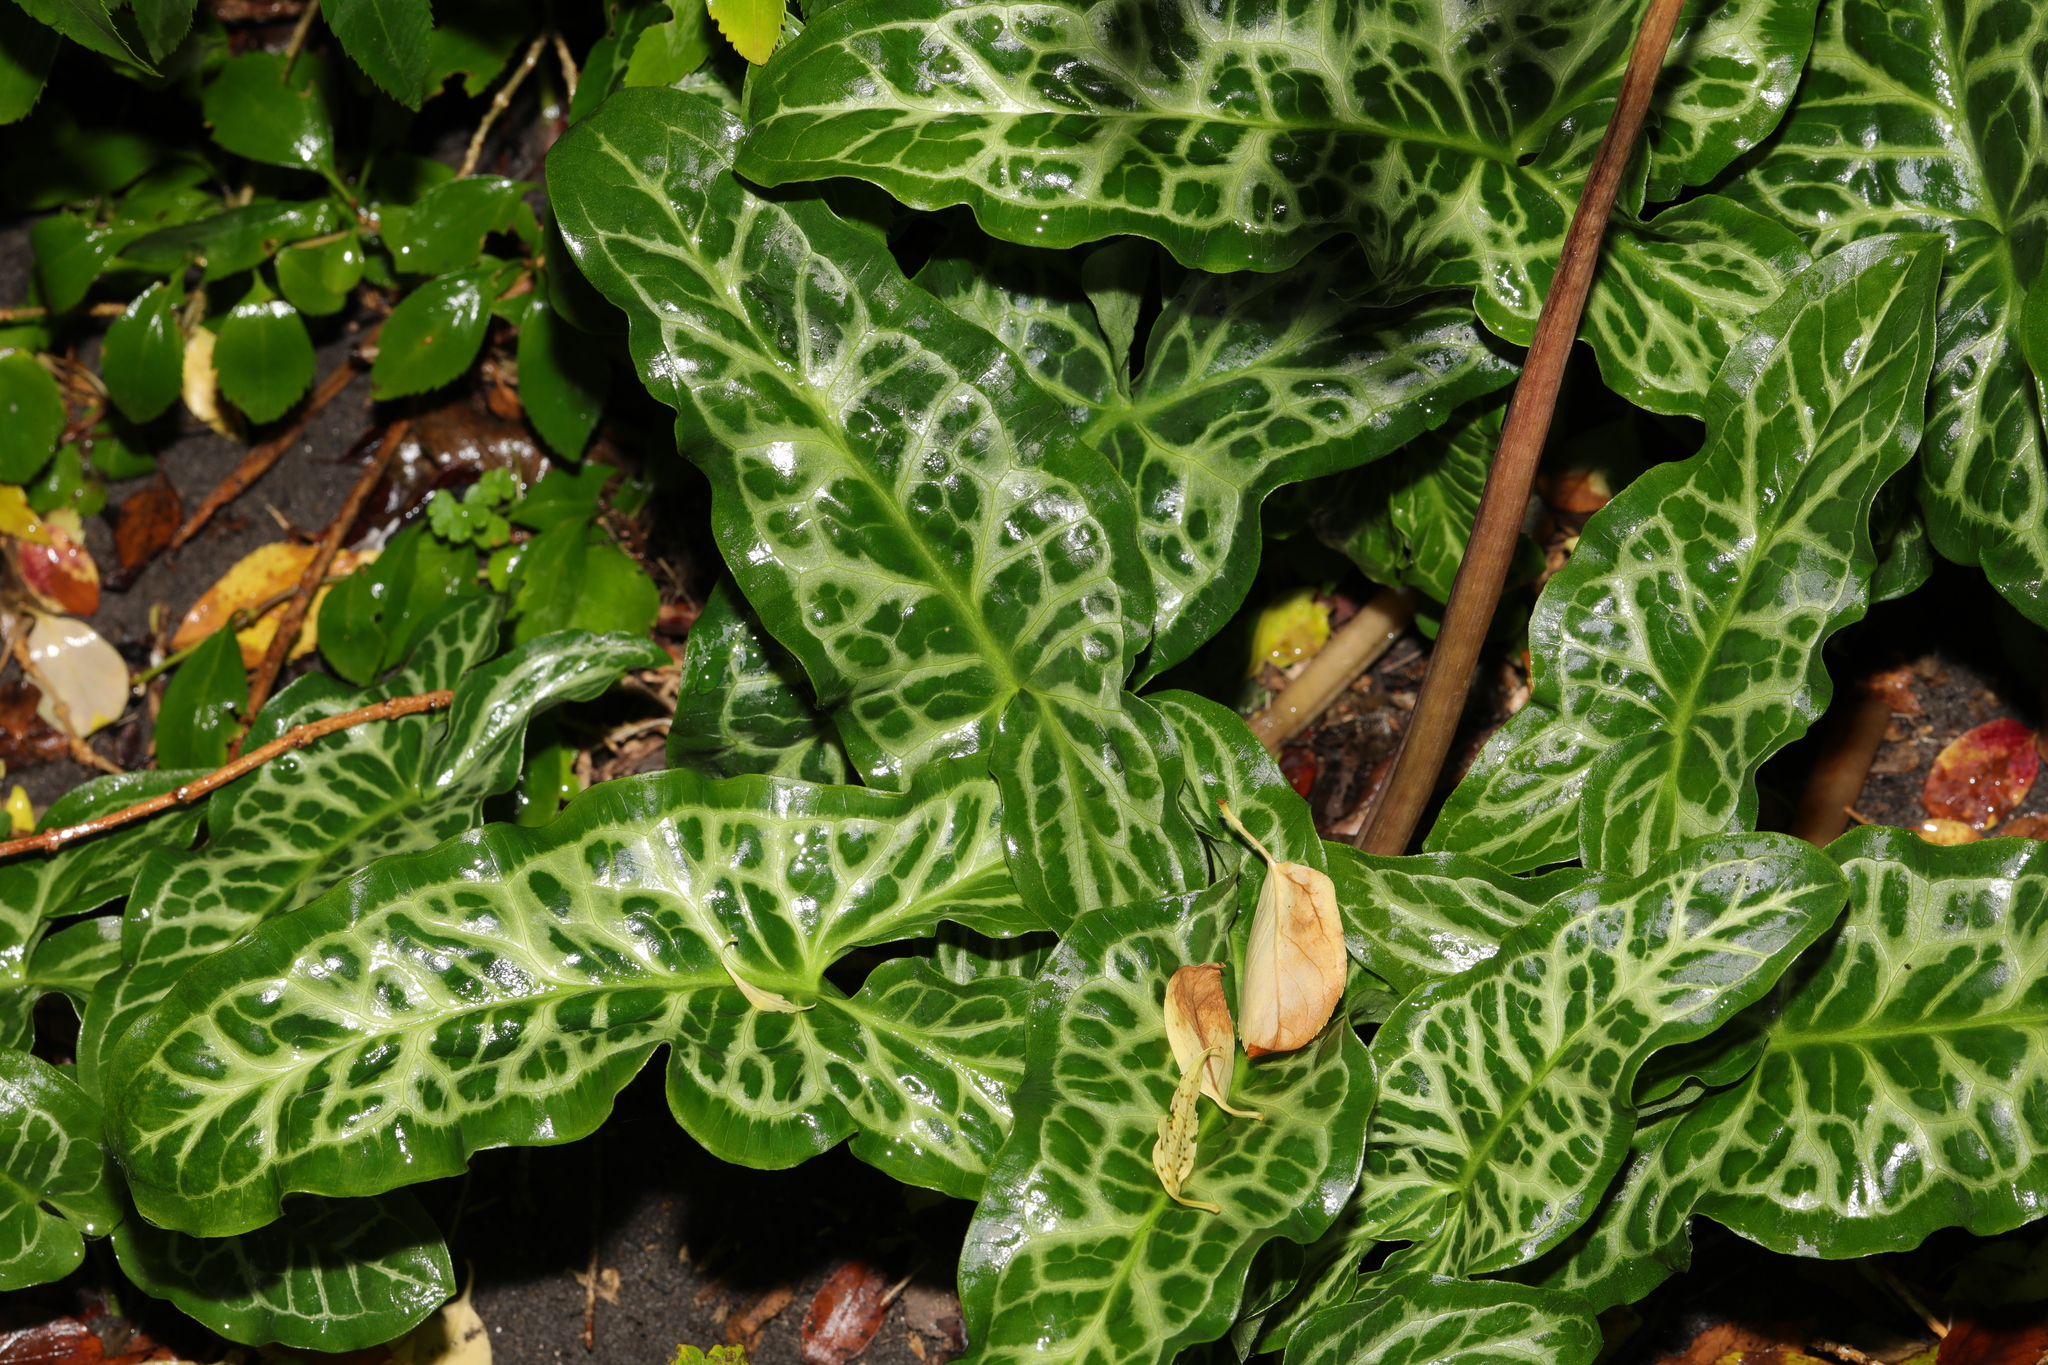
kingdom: Plantae
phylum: Tracheophyta
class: Liliopsida
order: Alismatales
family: Araceae
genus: Arum
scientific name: Arum italicum
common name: Italian lords-and-ladies
